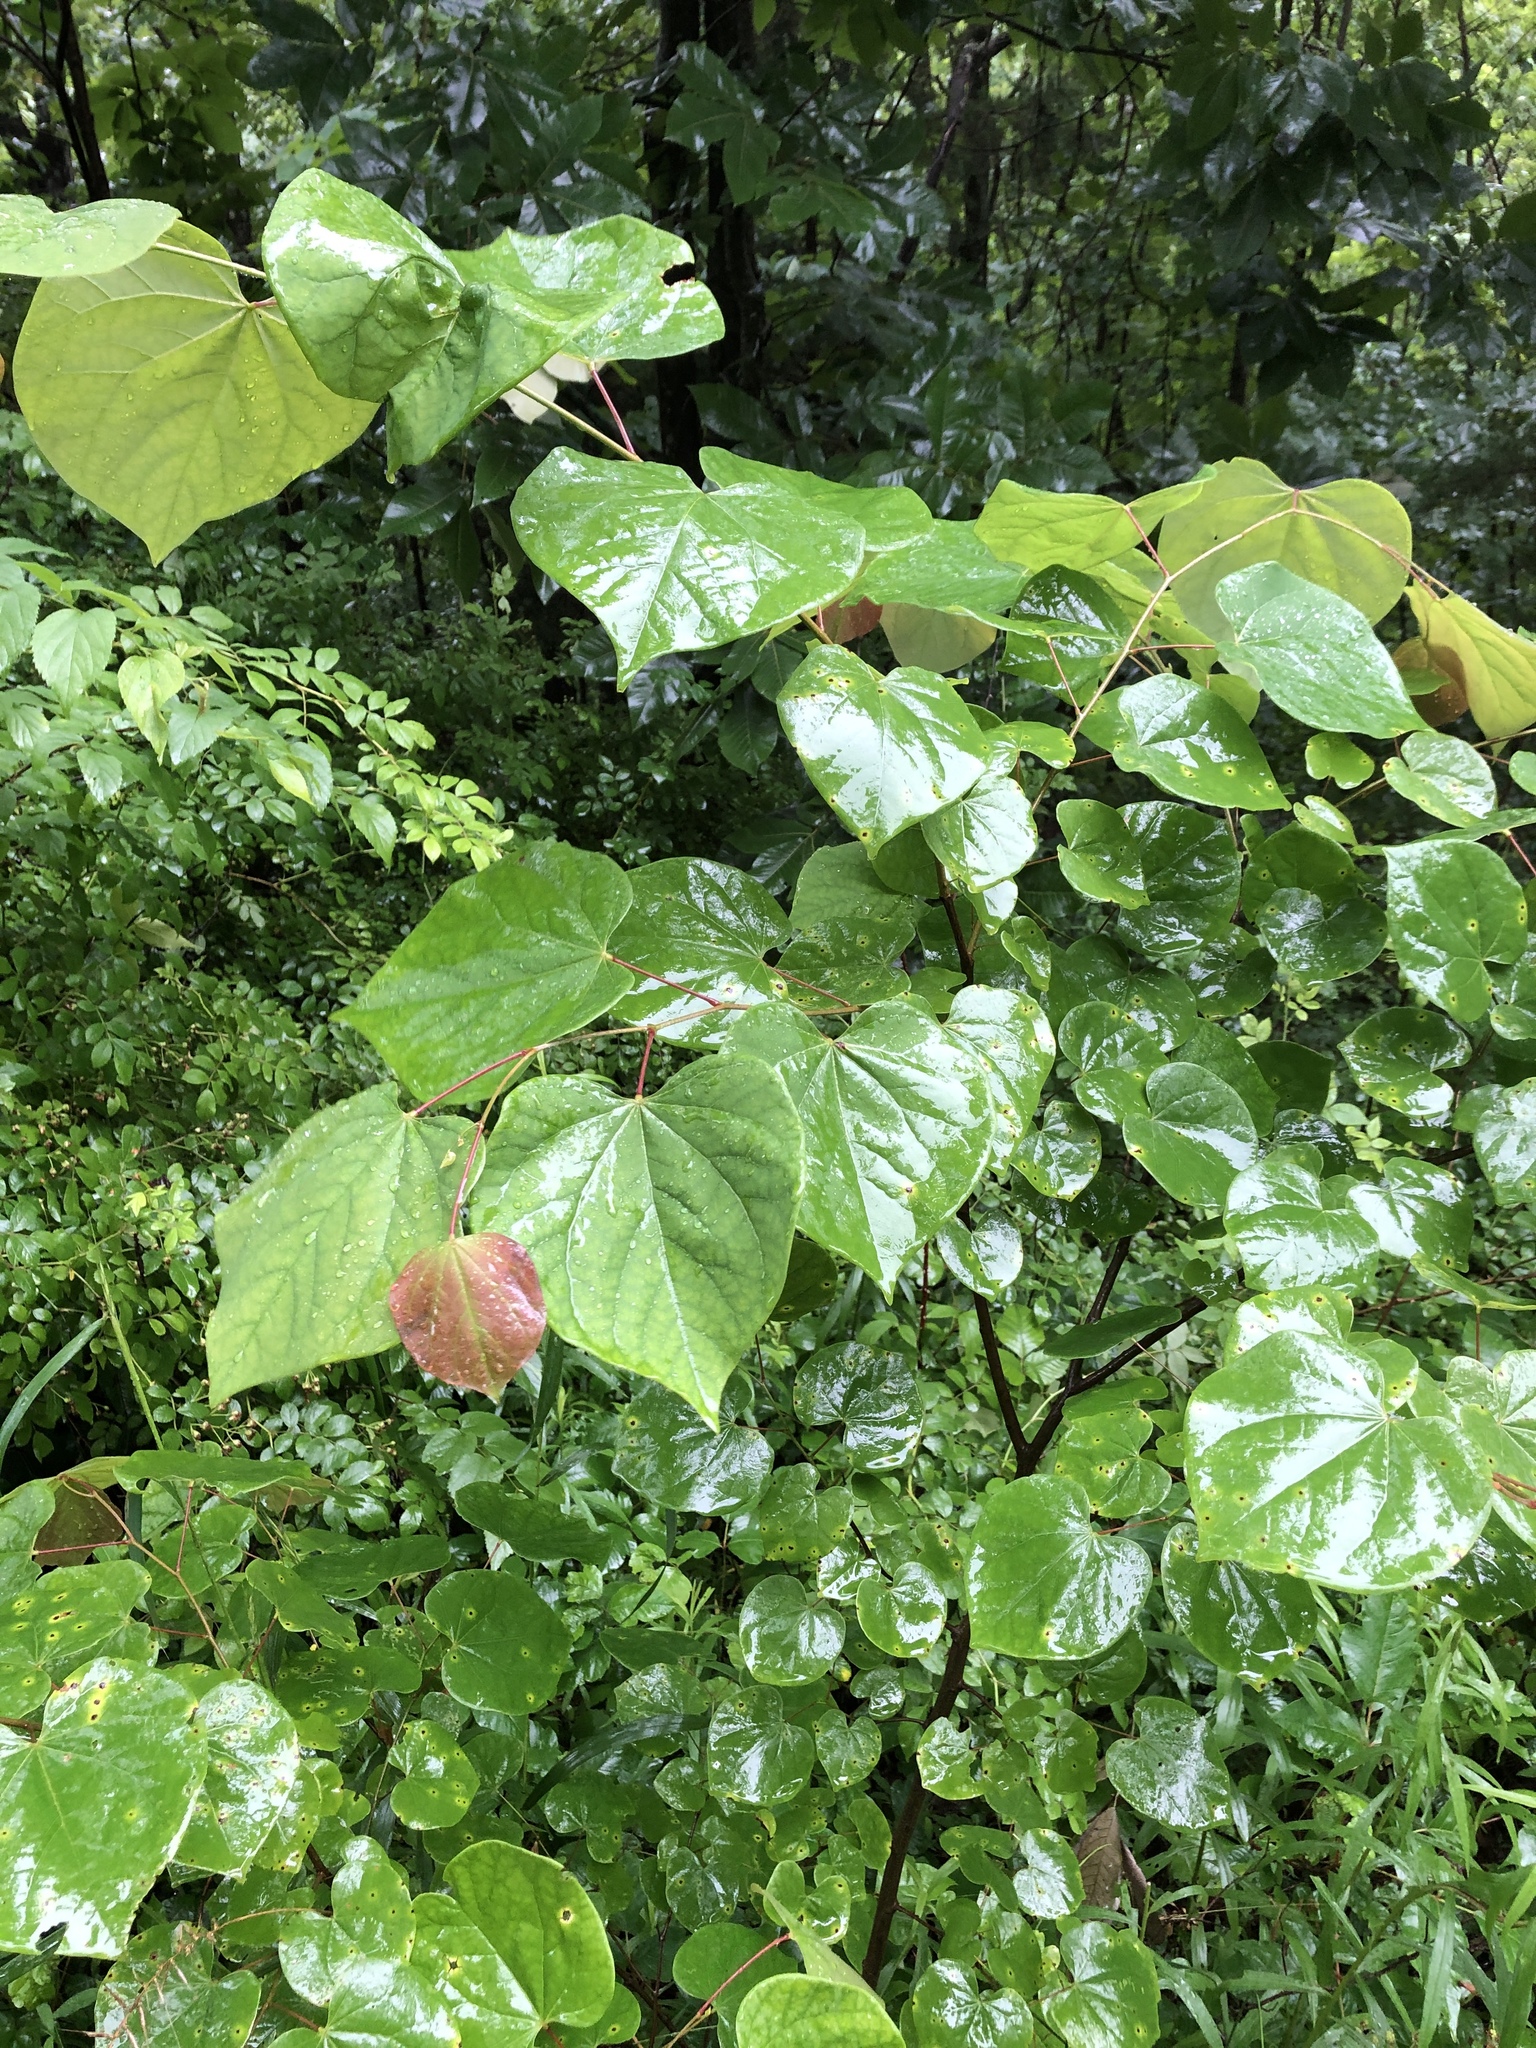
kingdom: Plantae
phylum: Tracheophyta
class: Magnoliopsida
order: Fabales
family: Fabaceae
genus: Cercis
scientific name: Cercis canadensis
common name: Eastern redbud
